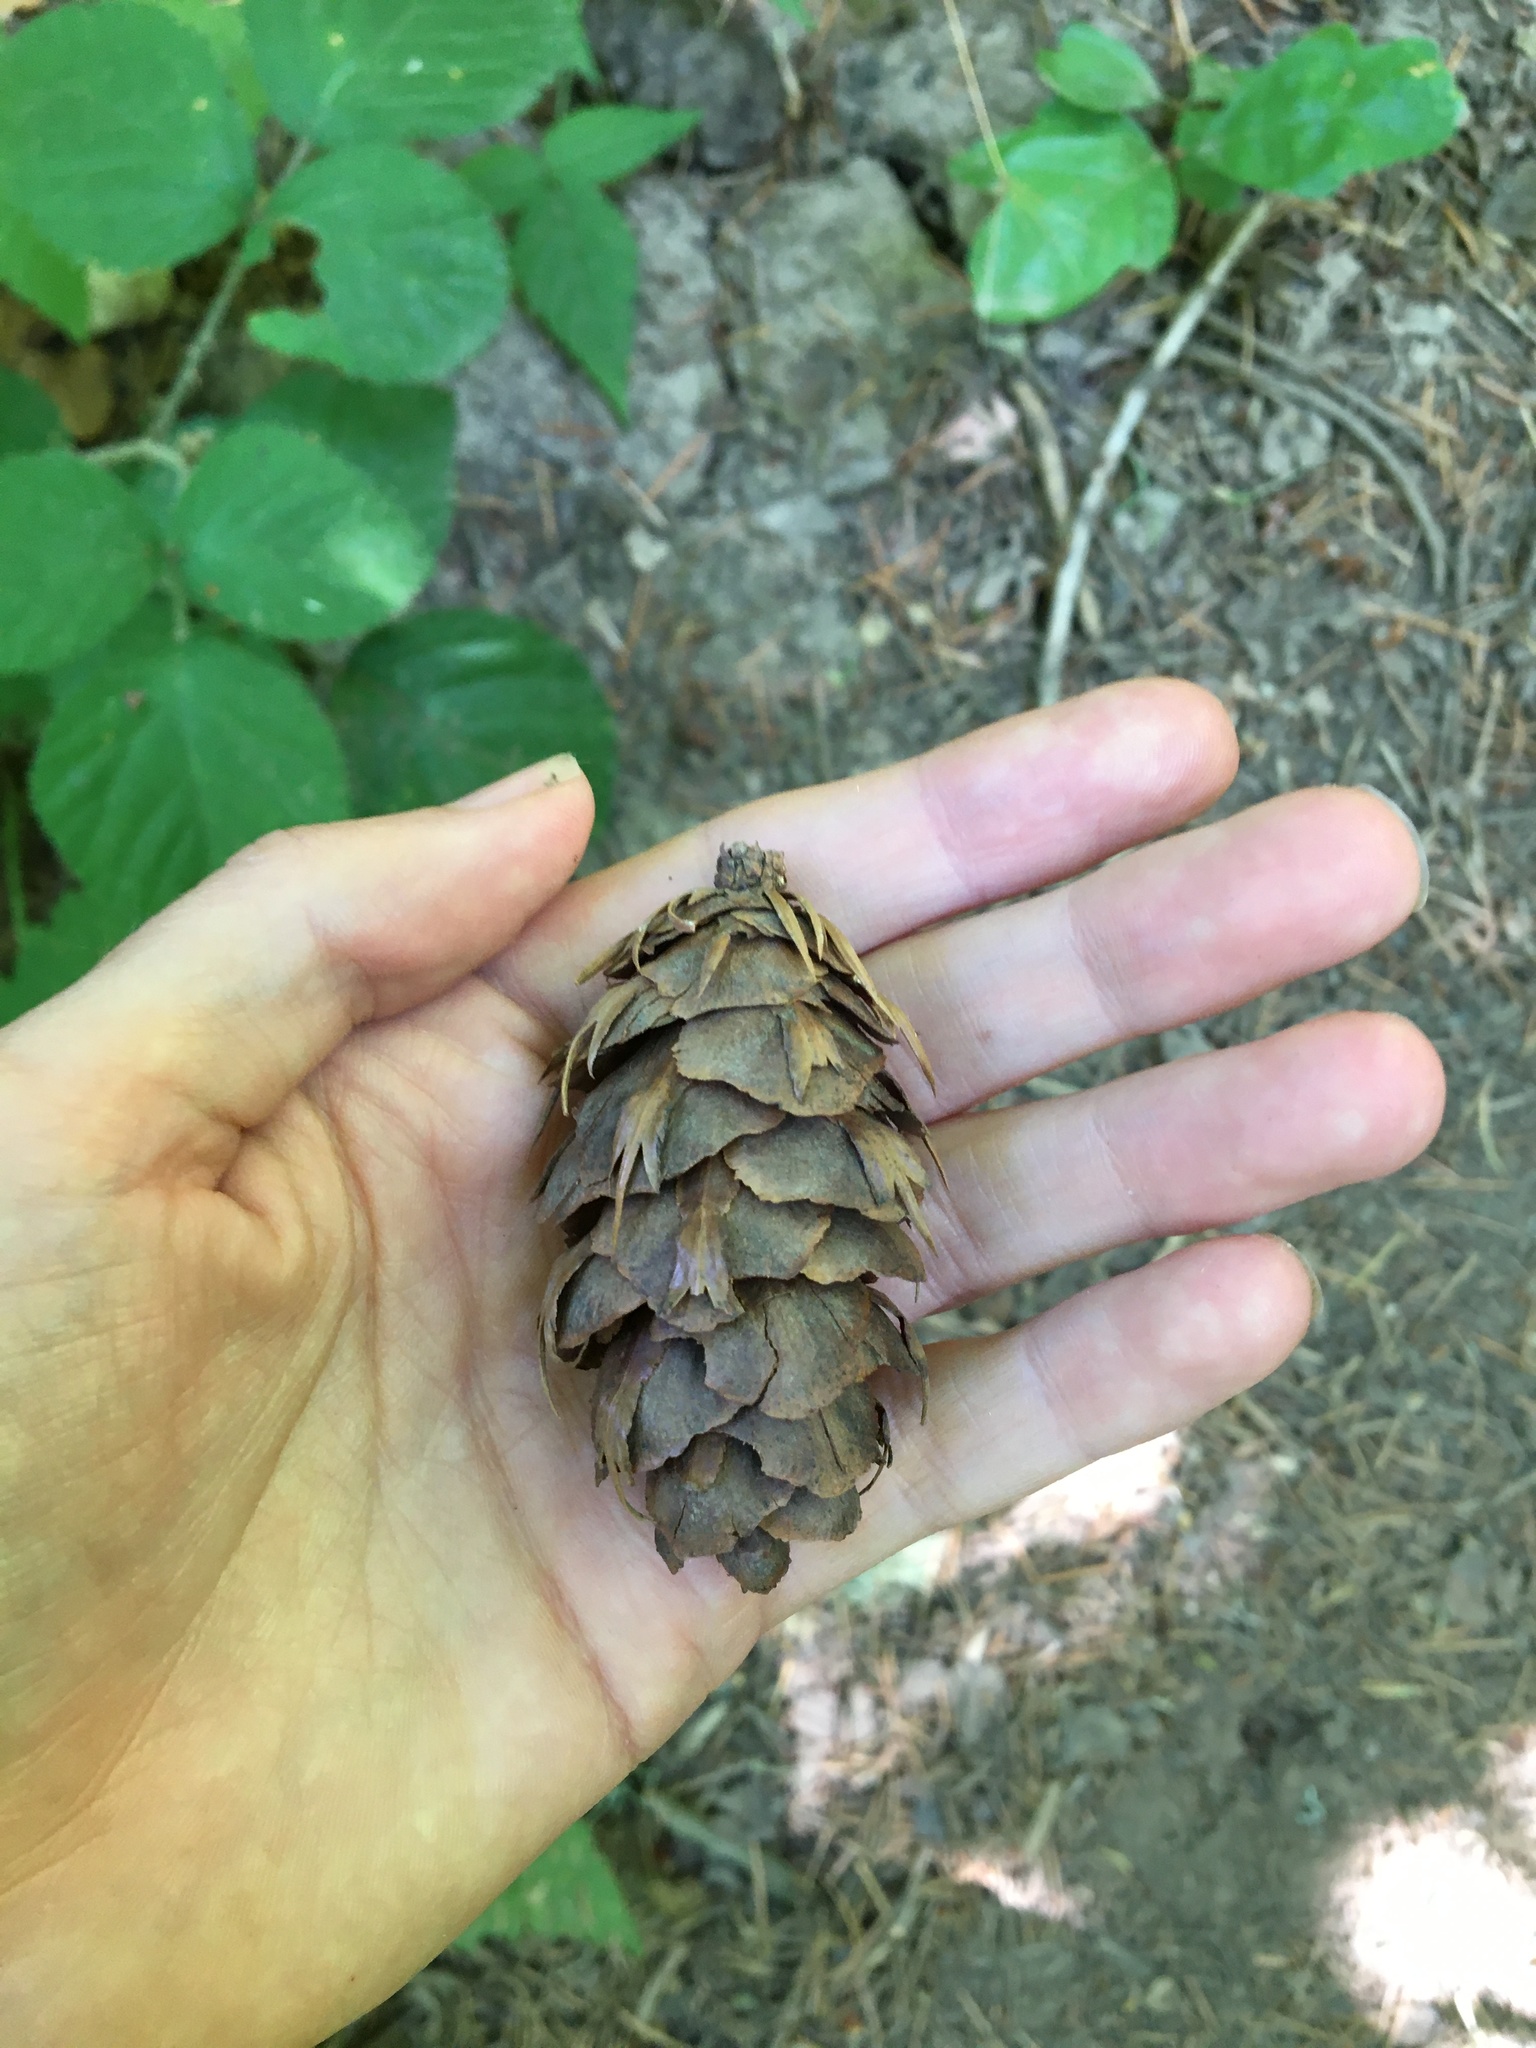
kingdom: Plantae
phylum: Tracheophyta
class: Pinopsida
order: Pinales
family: Pinaceae
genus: Pseudotsuga
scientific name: Pseudotsuga menziesii
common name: Douglas fir
